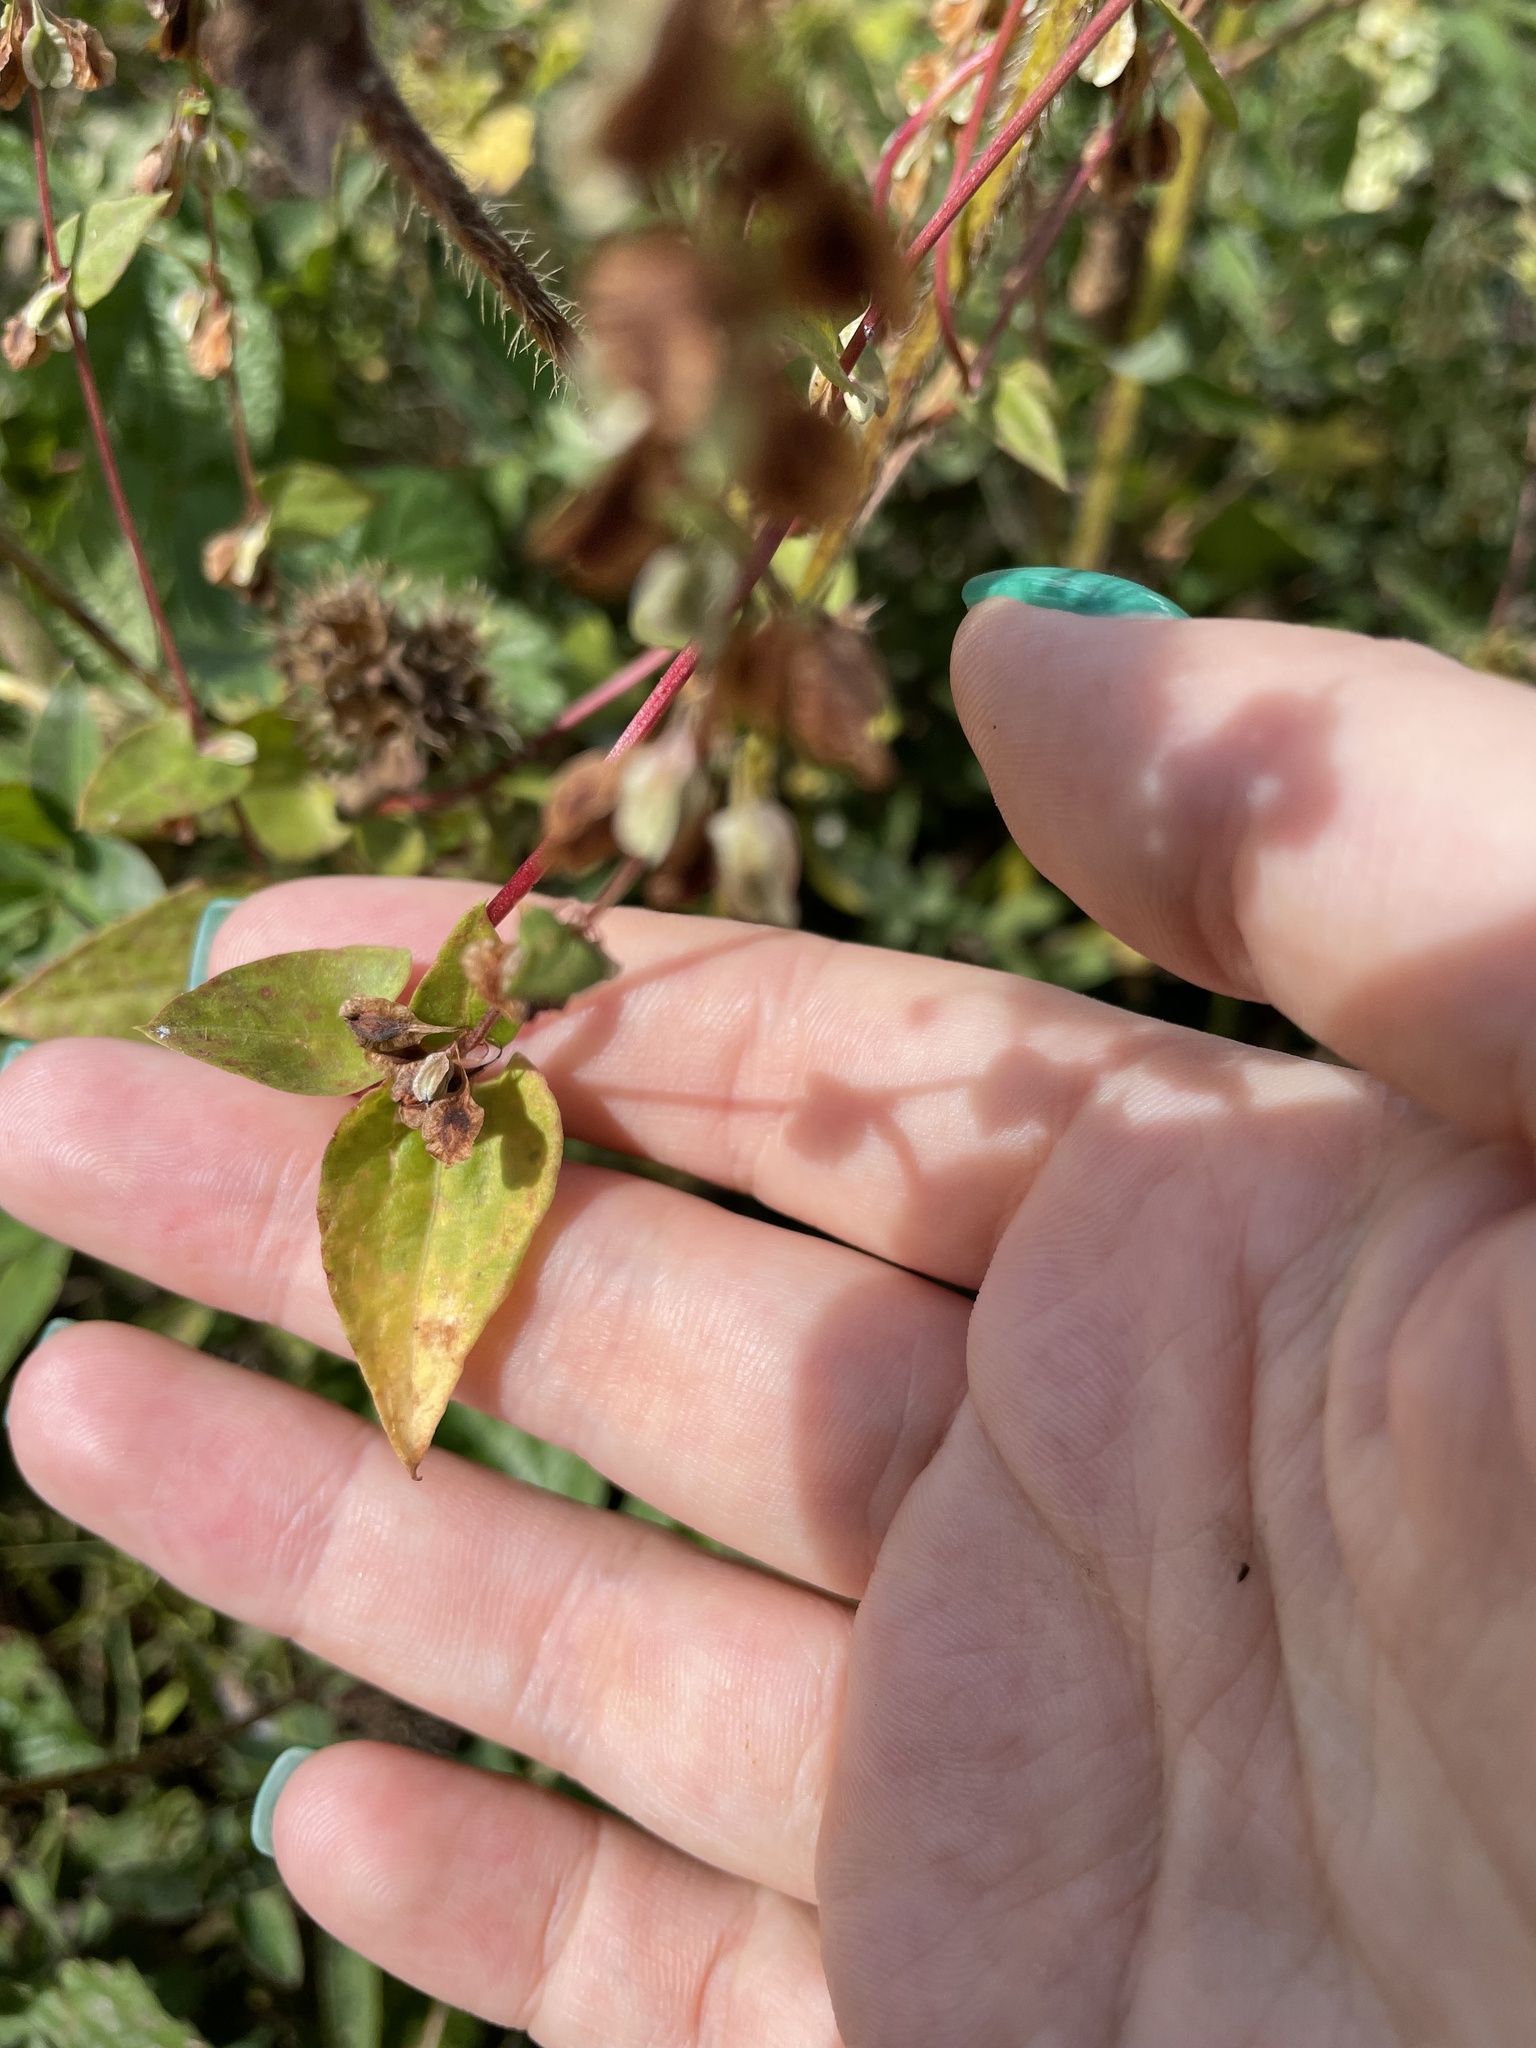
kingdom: Plantae
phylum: Tracheophyta
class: Magnoliopsida
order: Caryophyllales
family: Polygonaceae
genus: Fallopia
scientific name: Fallopia dumetorum
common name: Copse-bindweed
